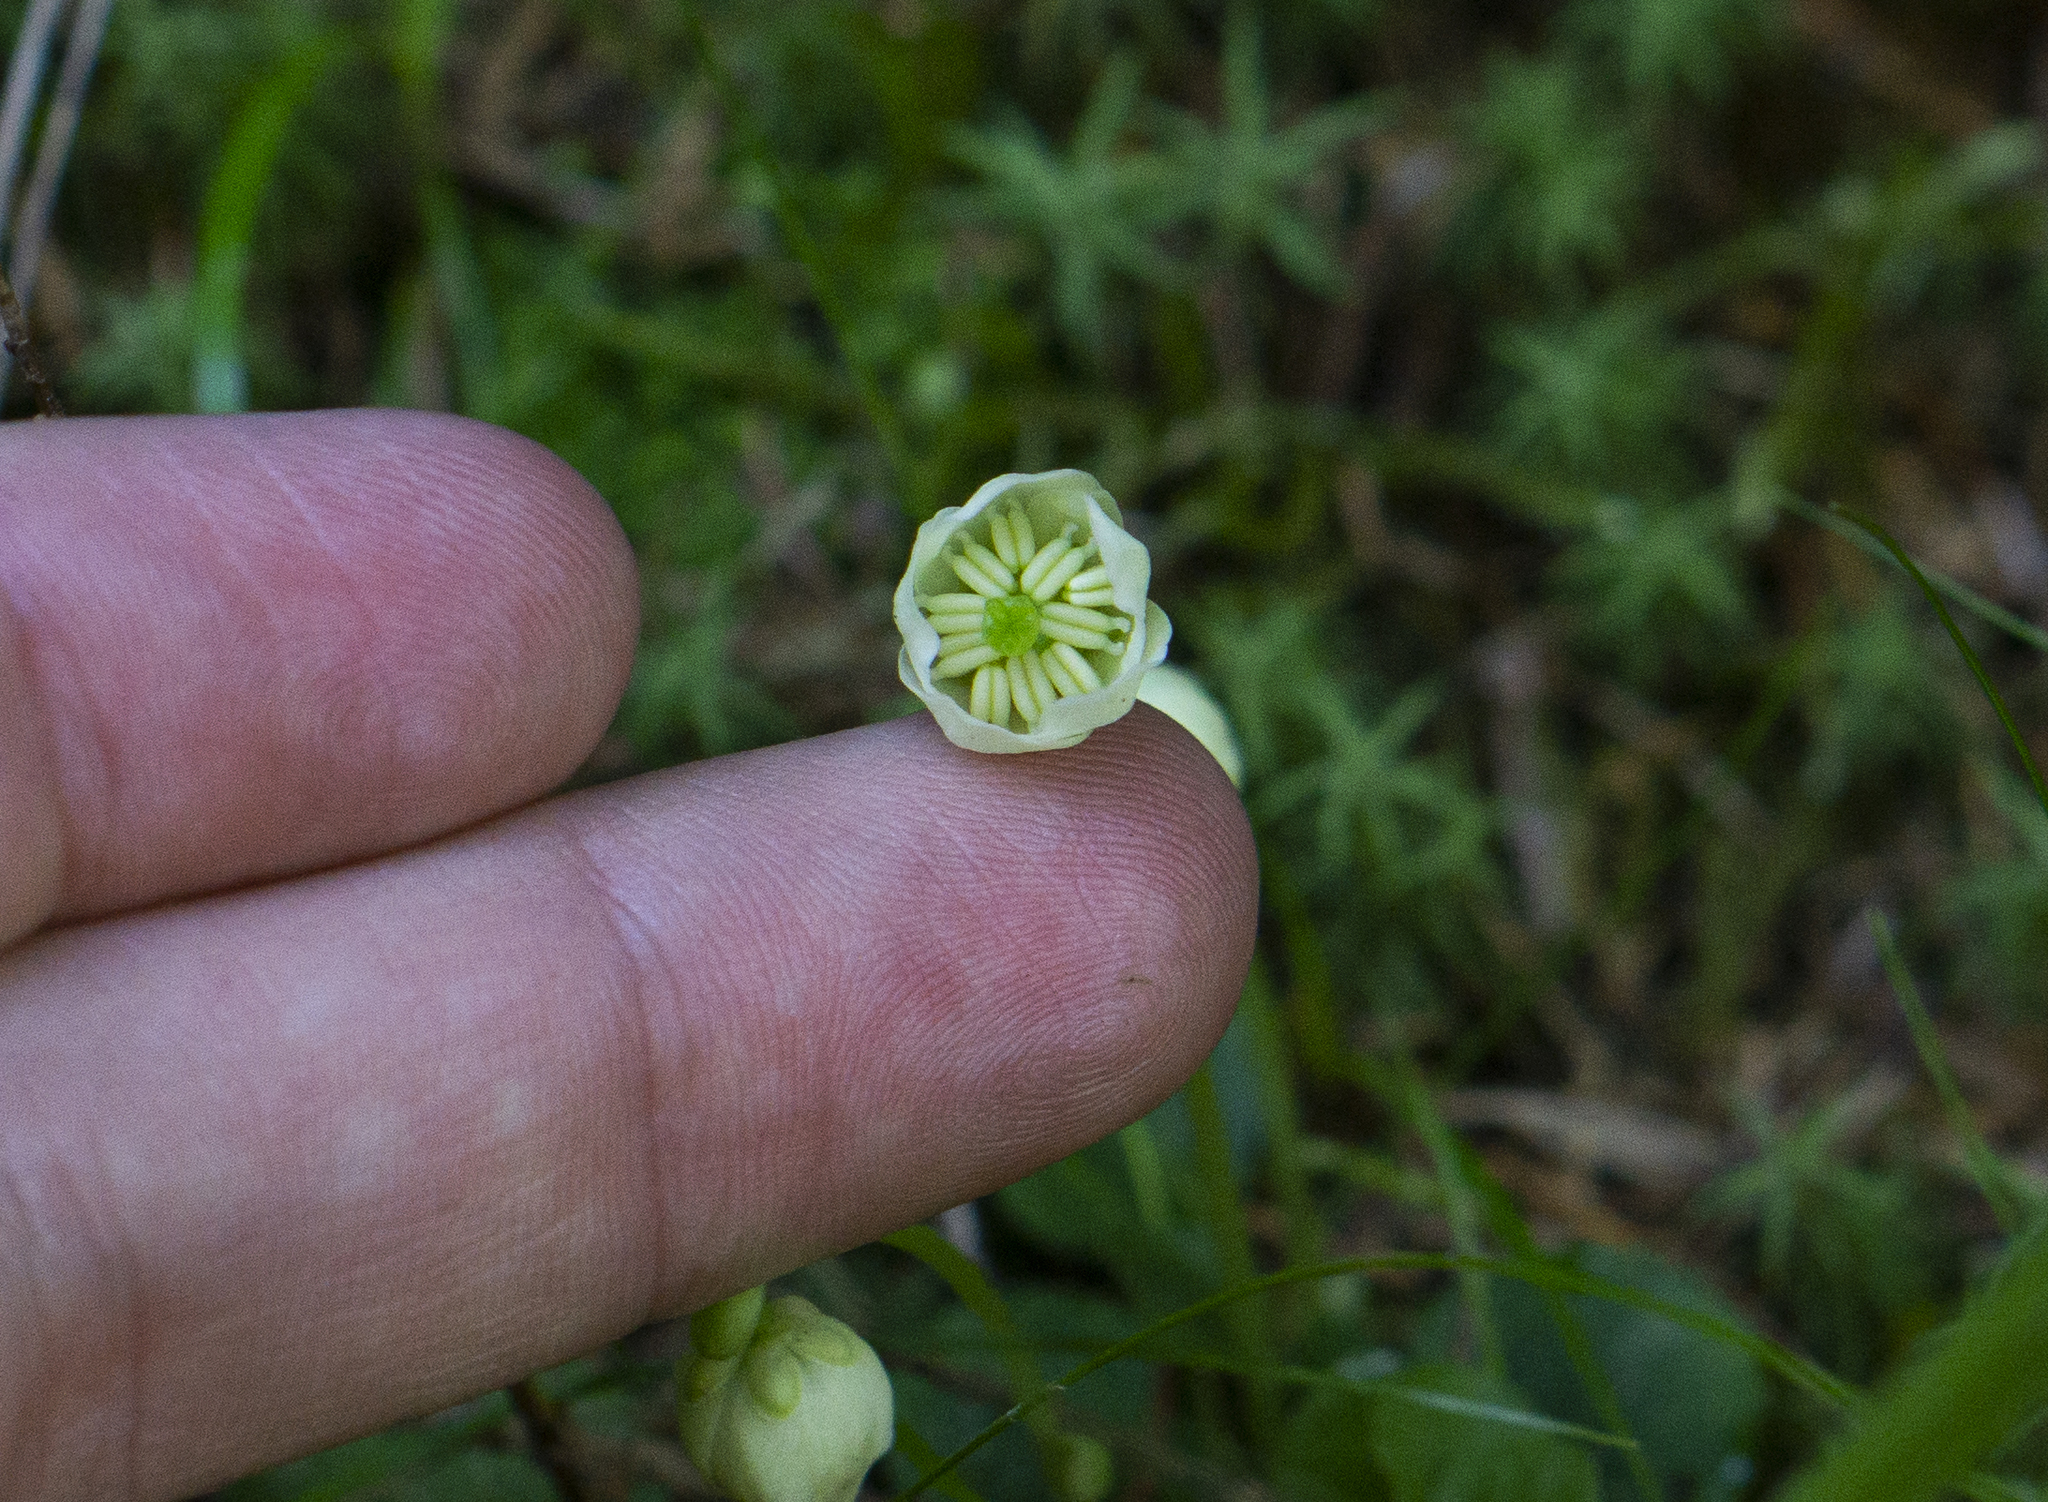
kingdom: Plantae
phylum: Tracheophyta
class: Magnoliopsida
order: Ericales
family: Ericaceae
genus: Moneses
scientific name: Moneses uniflora
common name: One-flowered wintergreen
